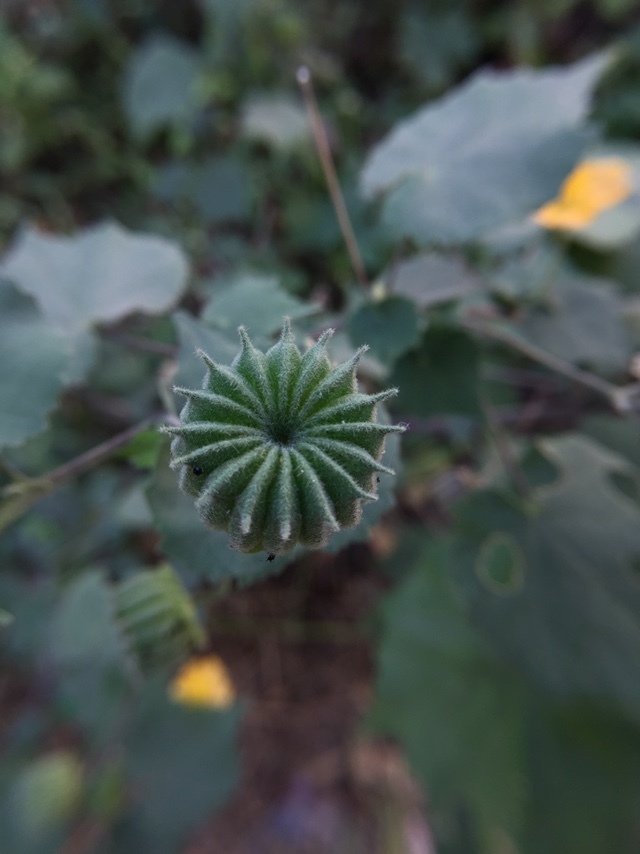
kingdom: Plantae
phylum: Tracheophyta
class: Magnoliopsida
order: Malvales
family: Malvaceae
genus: Abutilon
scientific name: Abutilon indicum
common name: Indian abutilon
